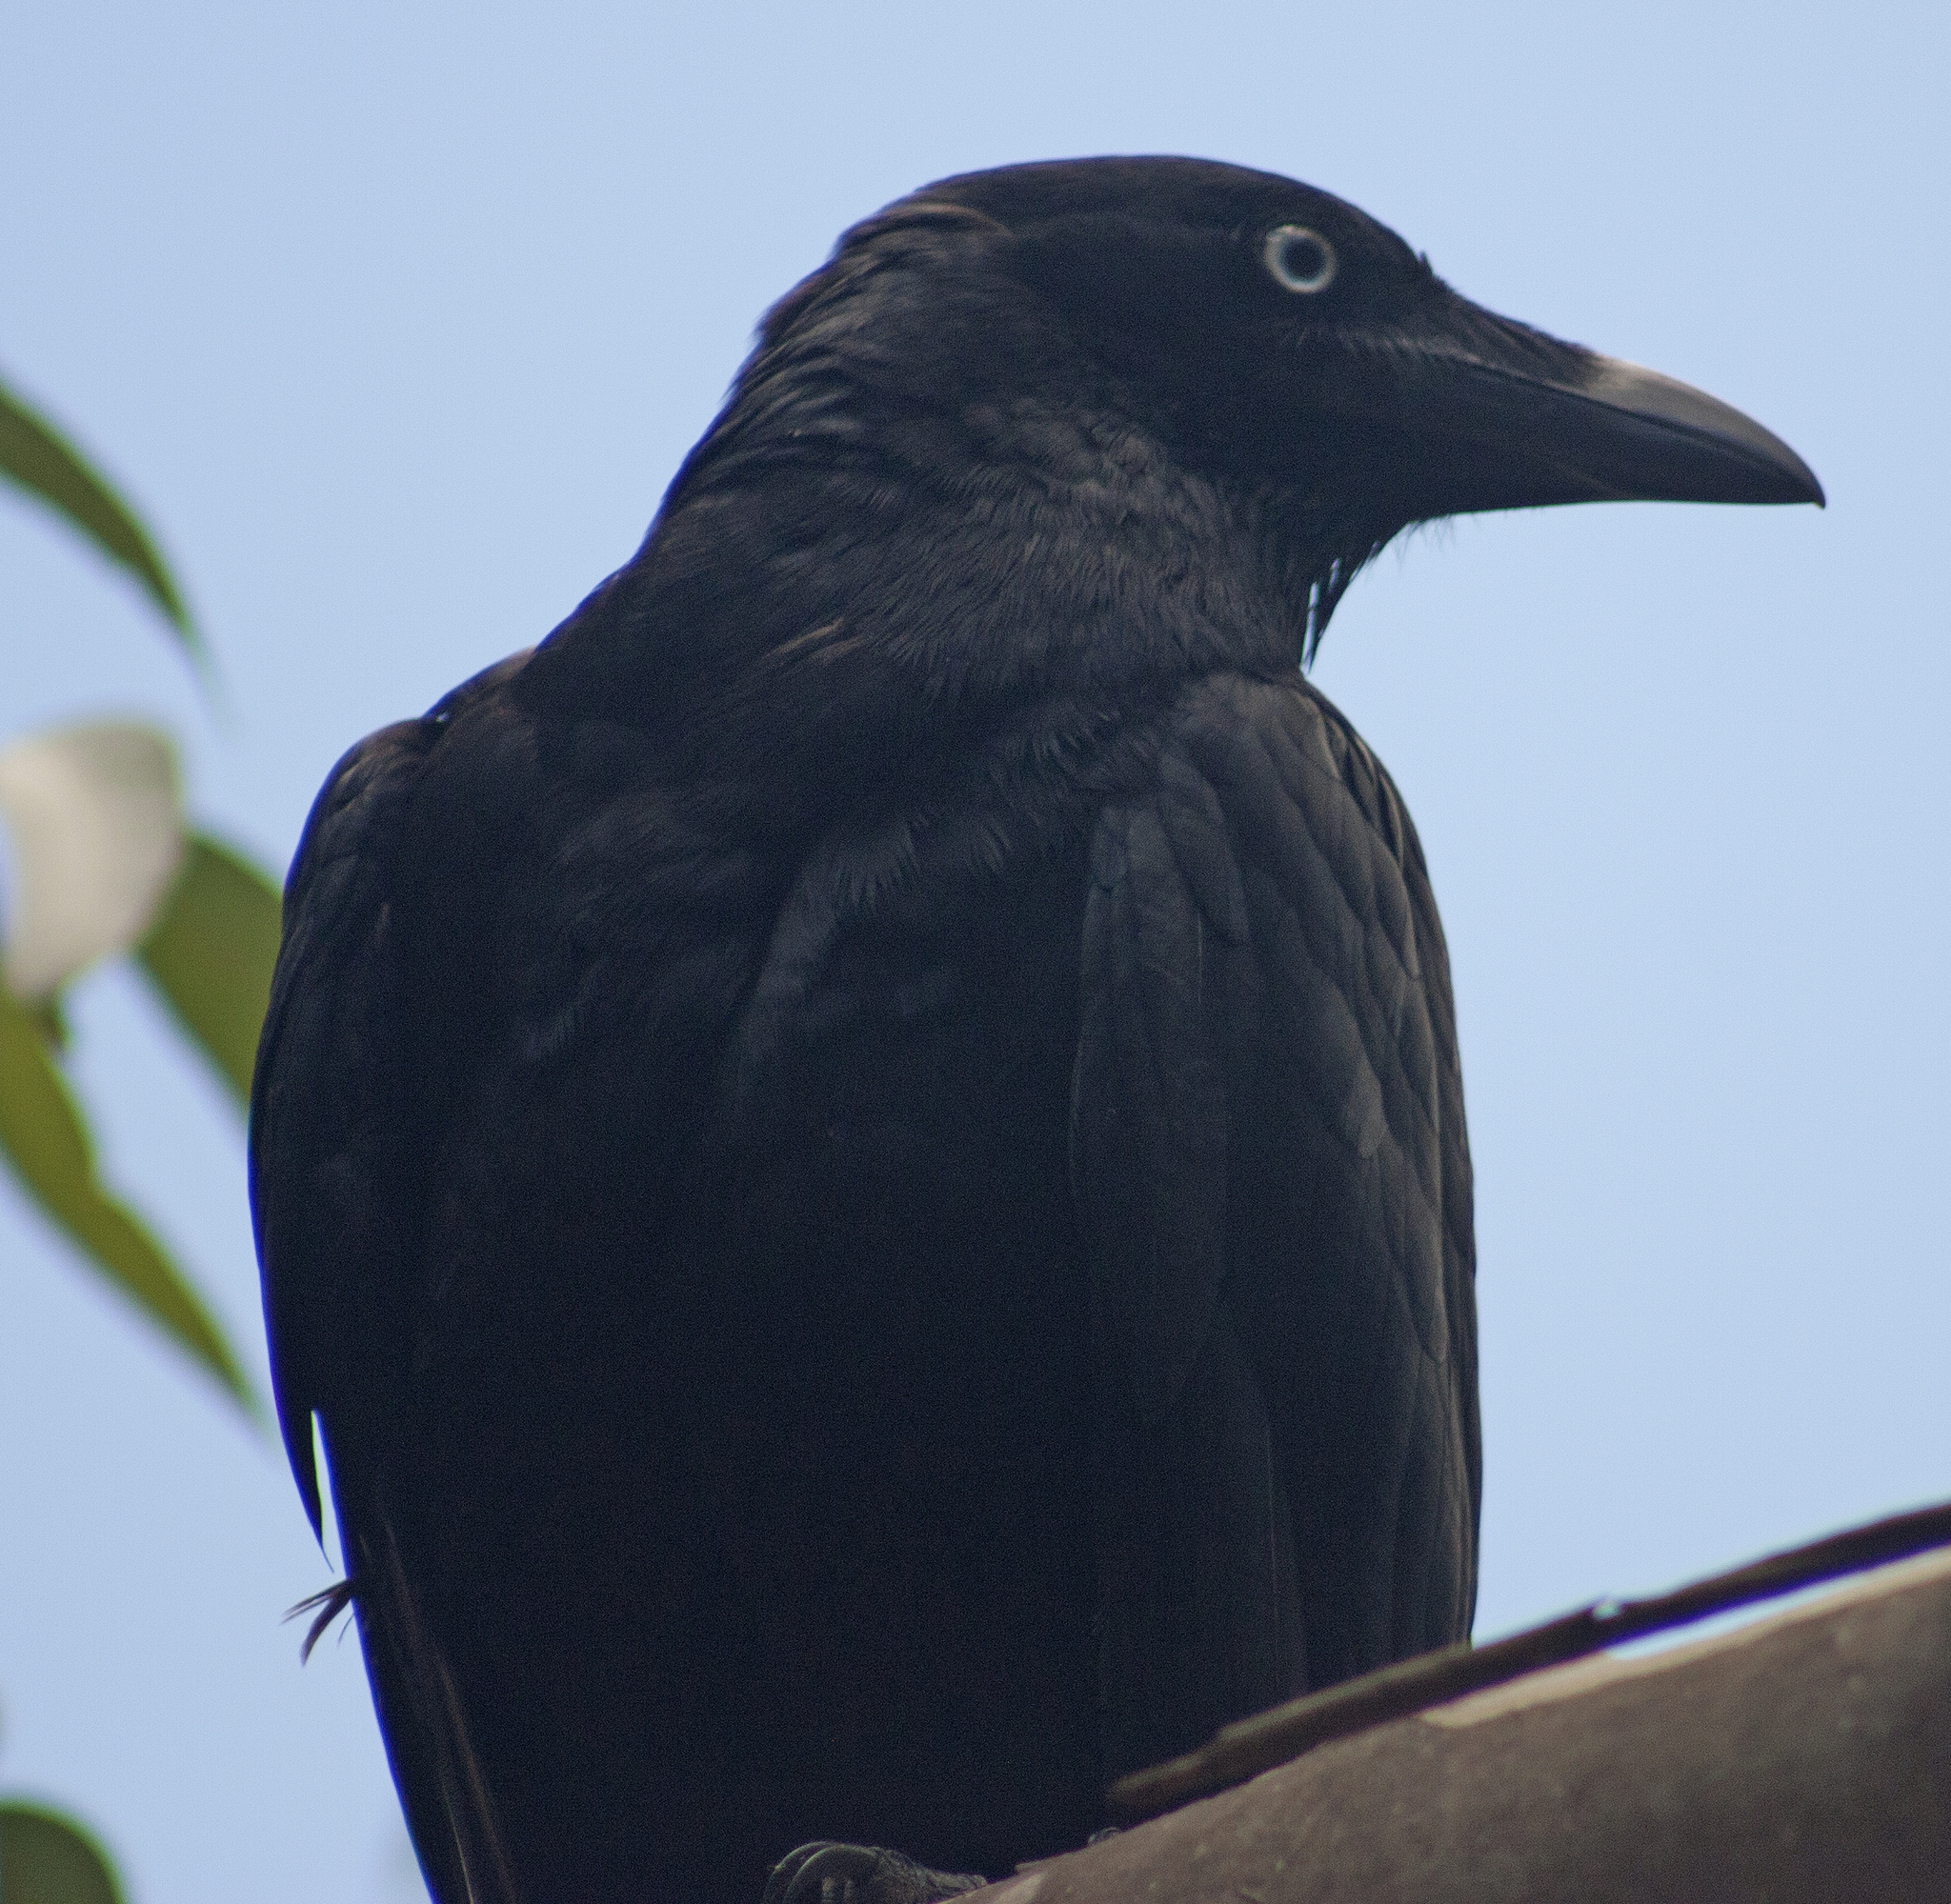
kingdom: Animalia
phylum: Chordata
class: Aves
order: Passeriformes
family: Corvidae
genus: Corvus
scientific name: Corvus orru
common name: Torresian crow
